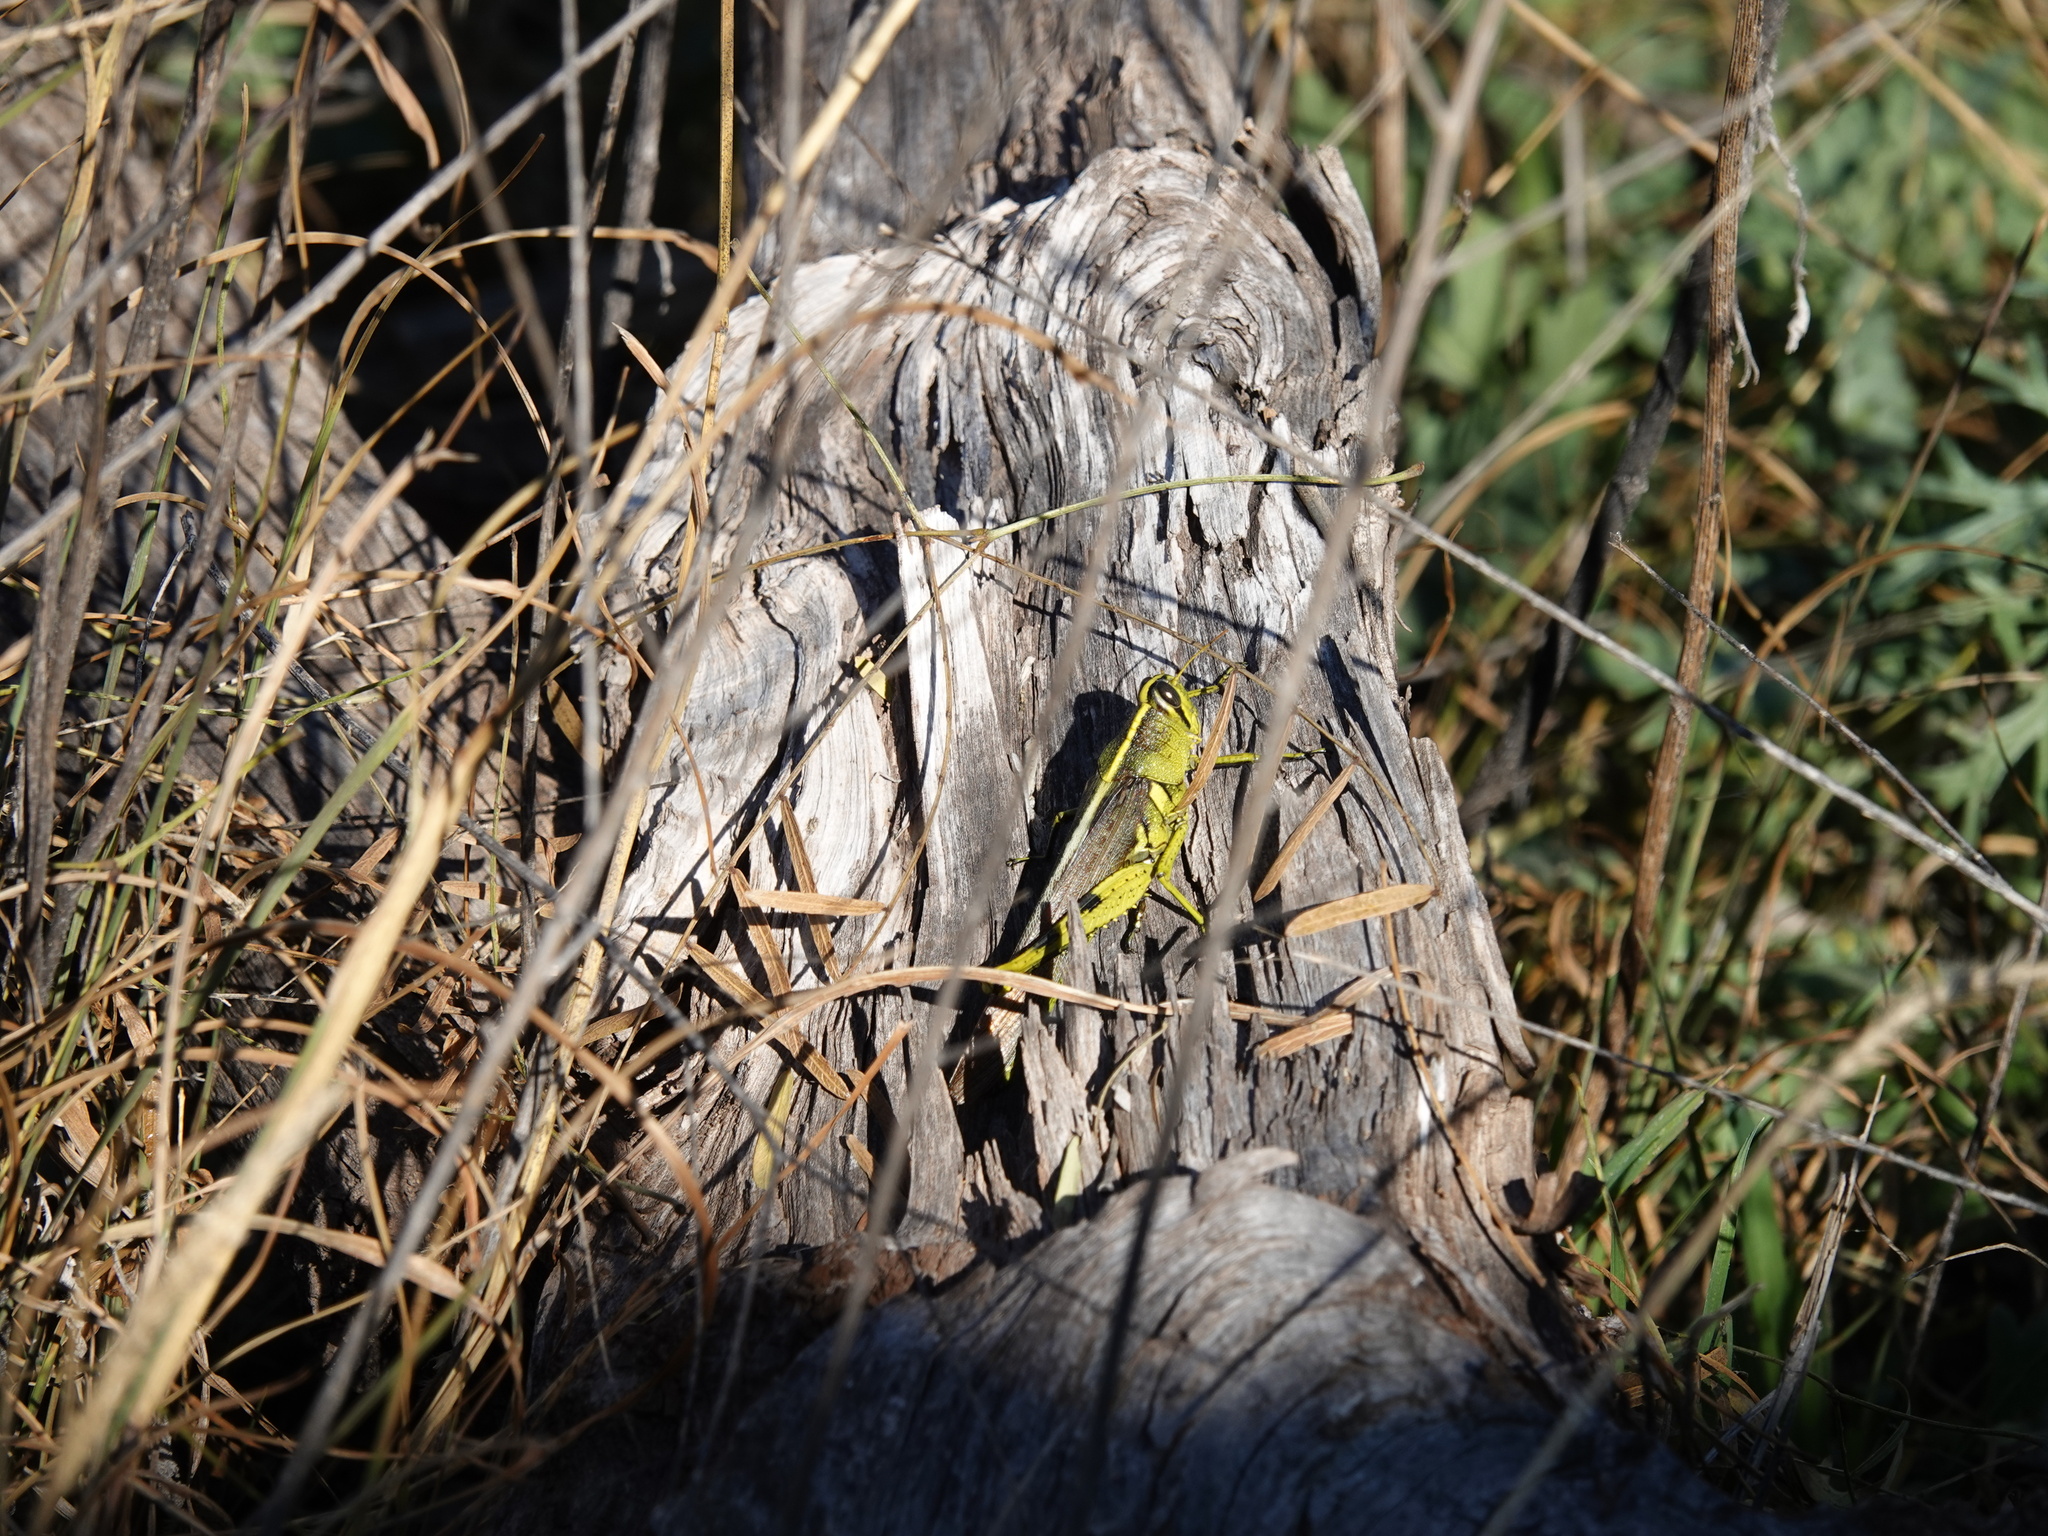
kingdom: Animalia
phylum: Arthropoda
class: Insecta
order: Orthoptera
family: Acrididae
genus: Schistocerca
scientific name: Schistocerca obscura
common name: Obscure bird grasshopper
